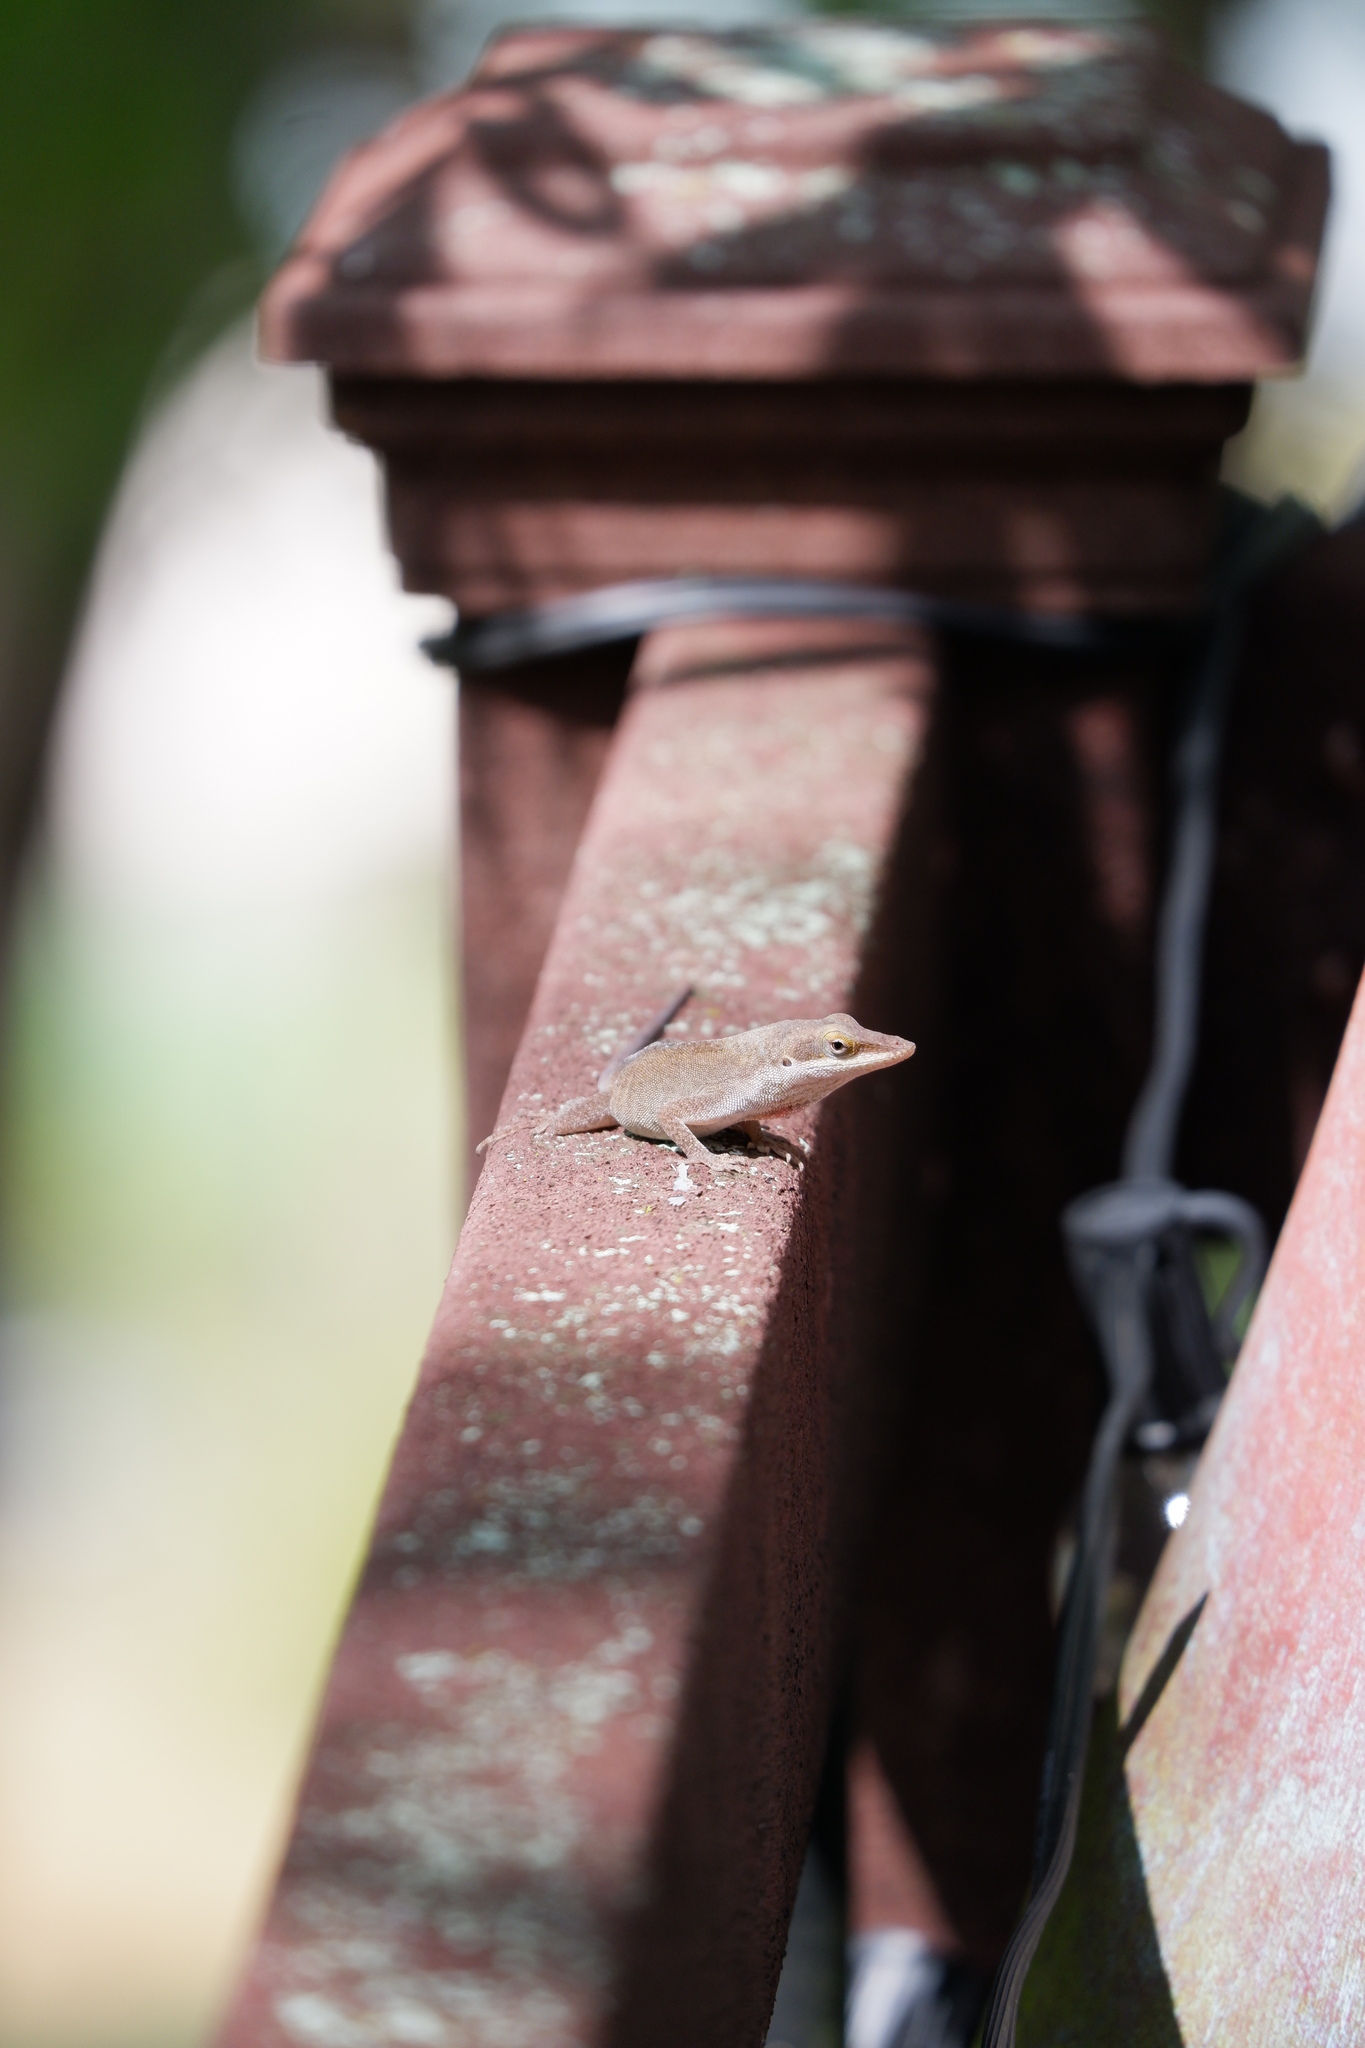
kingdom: Animalia
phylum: Chordata
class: Squamata
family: Dactyloidae
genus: Anolis
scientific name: Anolis carolinensis
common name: Green anole
